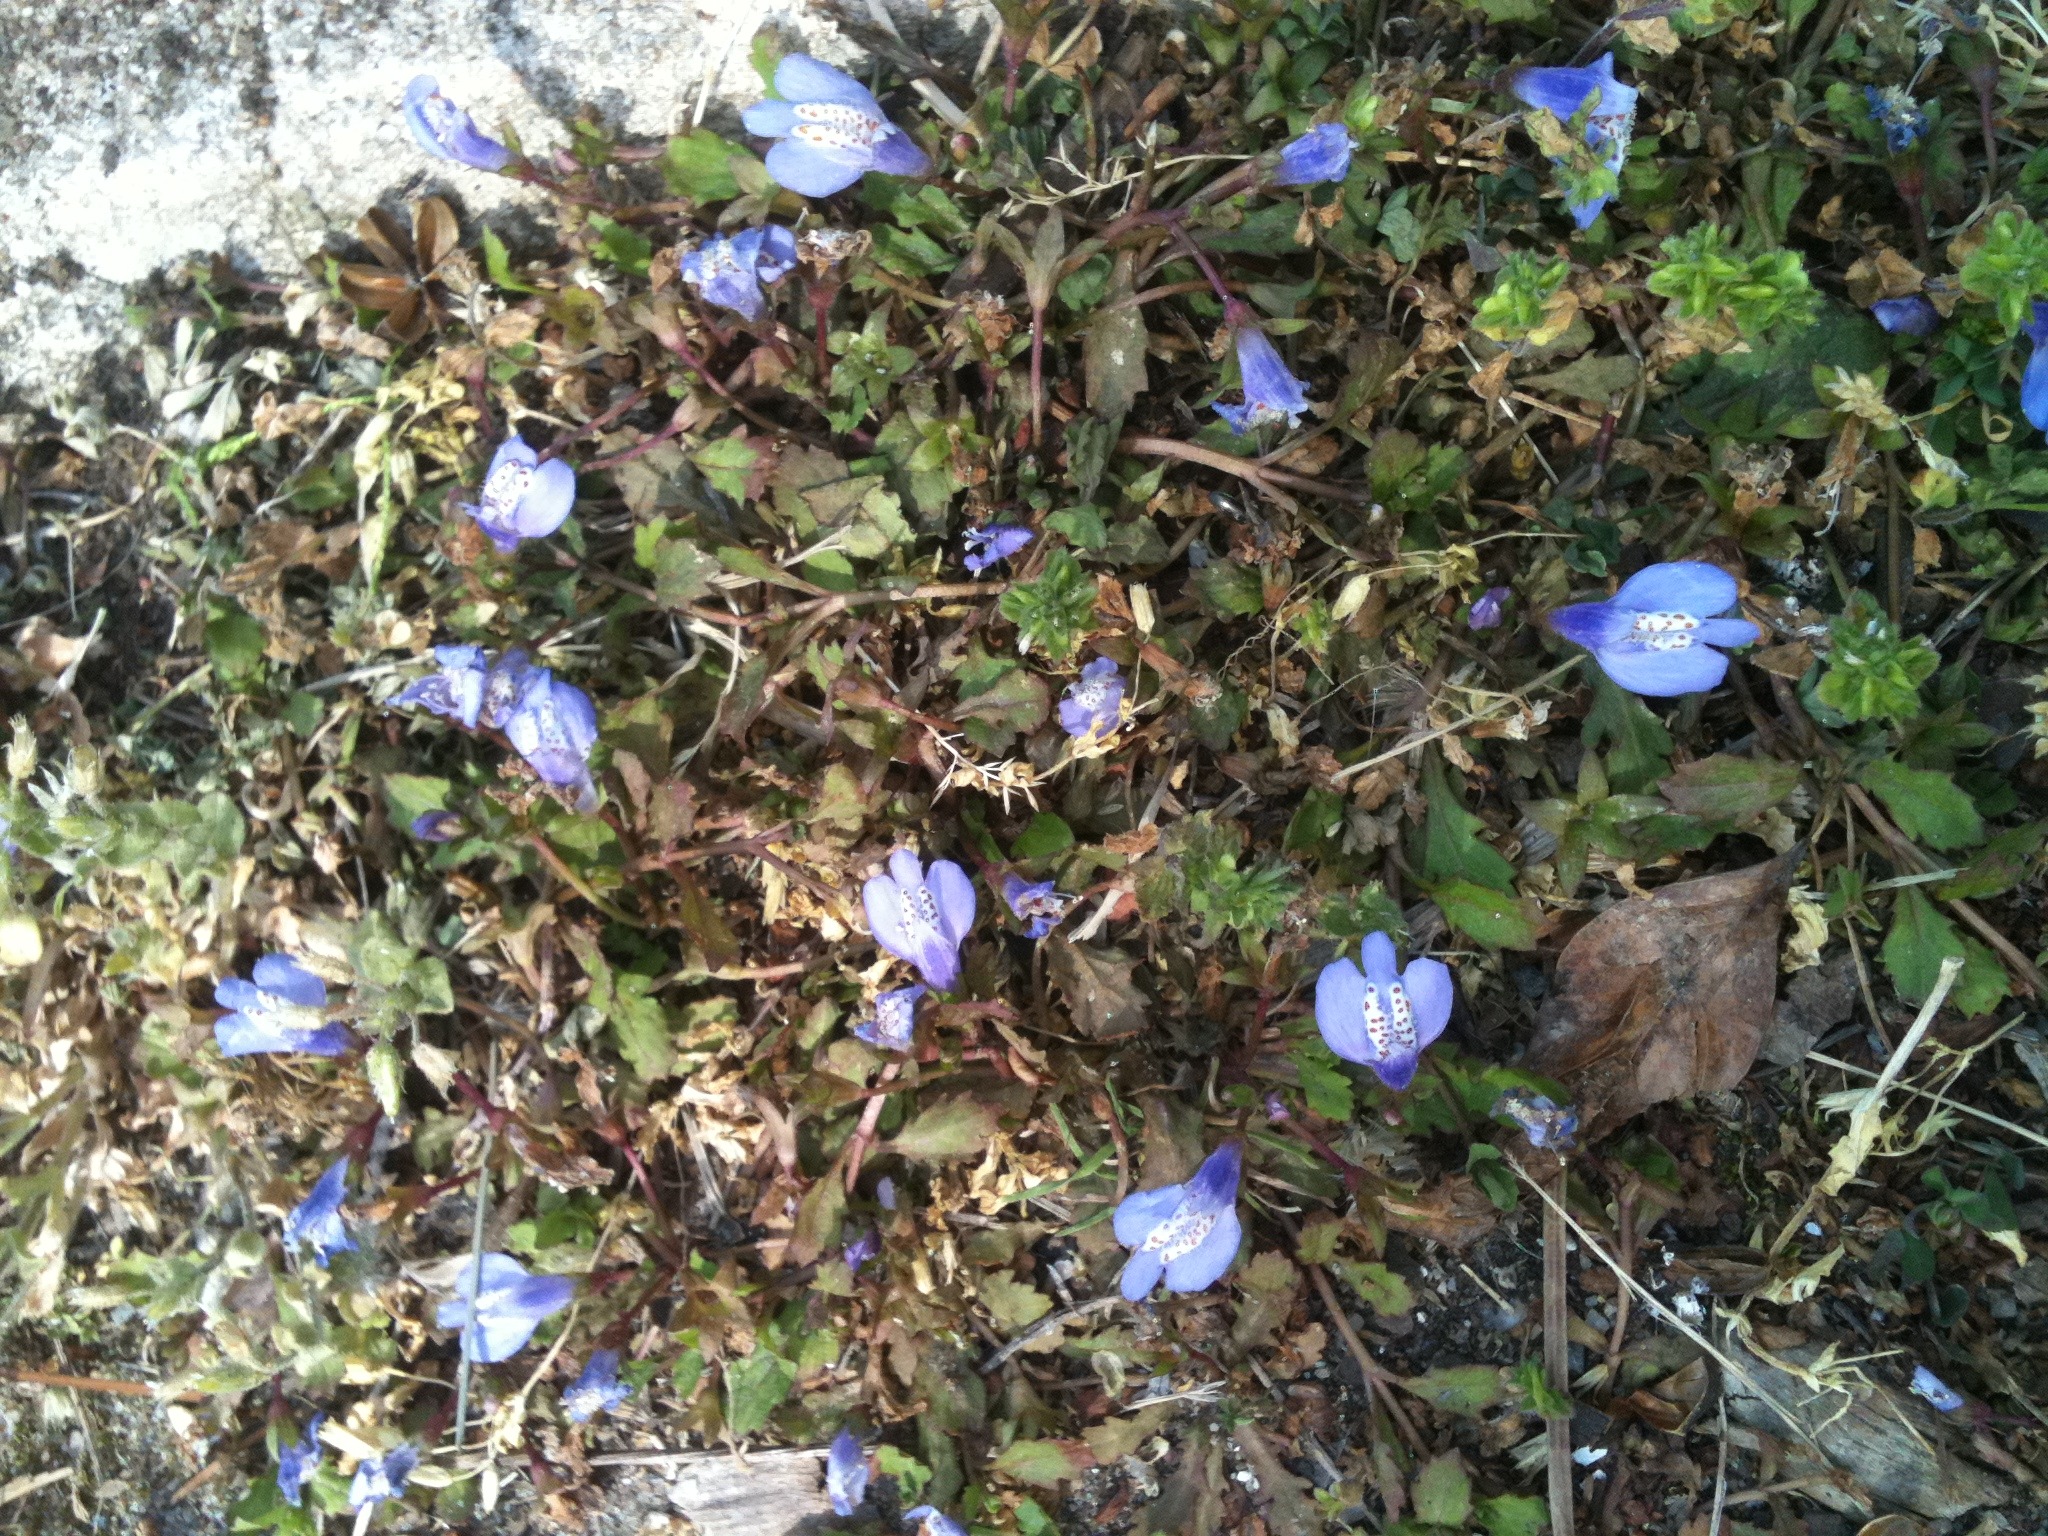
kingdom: Plantae
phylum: Tracheophyta
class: Magnoliopsida
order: Lamiales
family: Mazaceae
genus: Mazus
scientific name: Mazus miquelii
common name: Miquel's mazus
